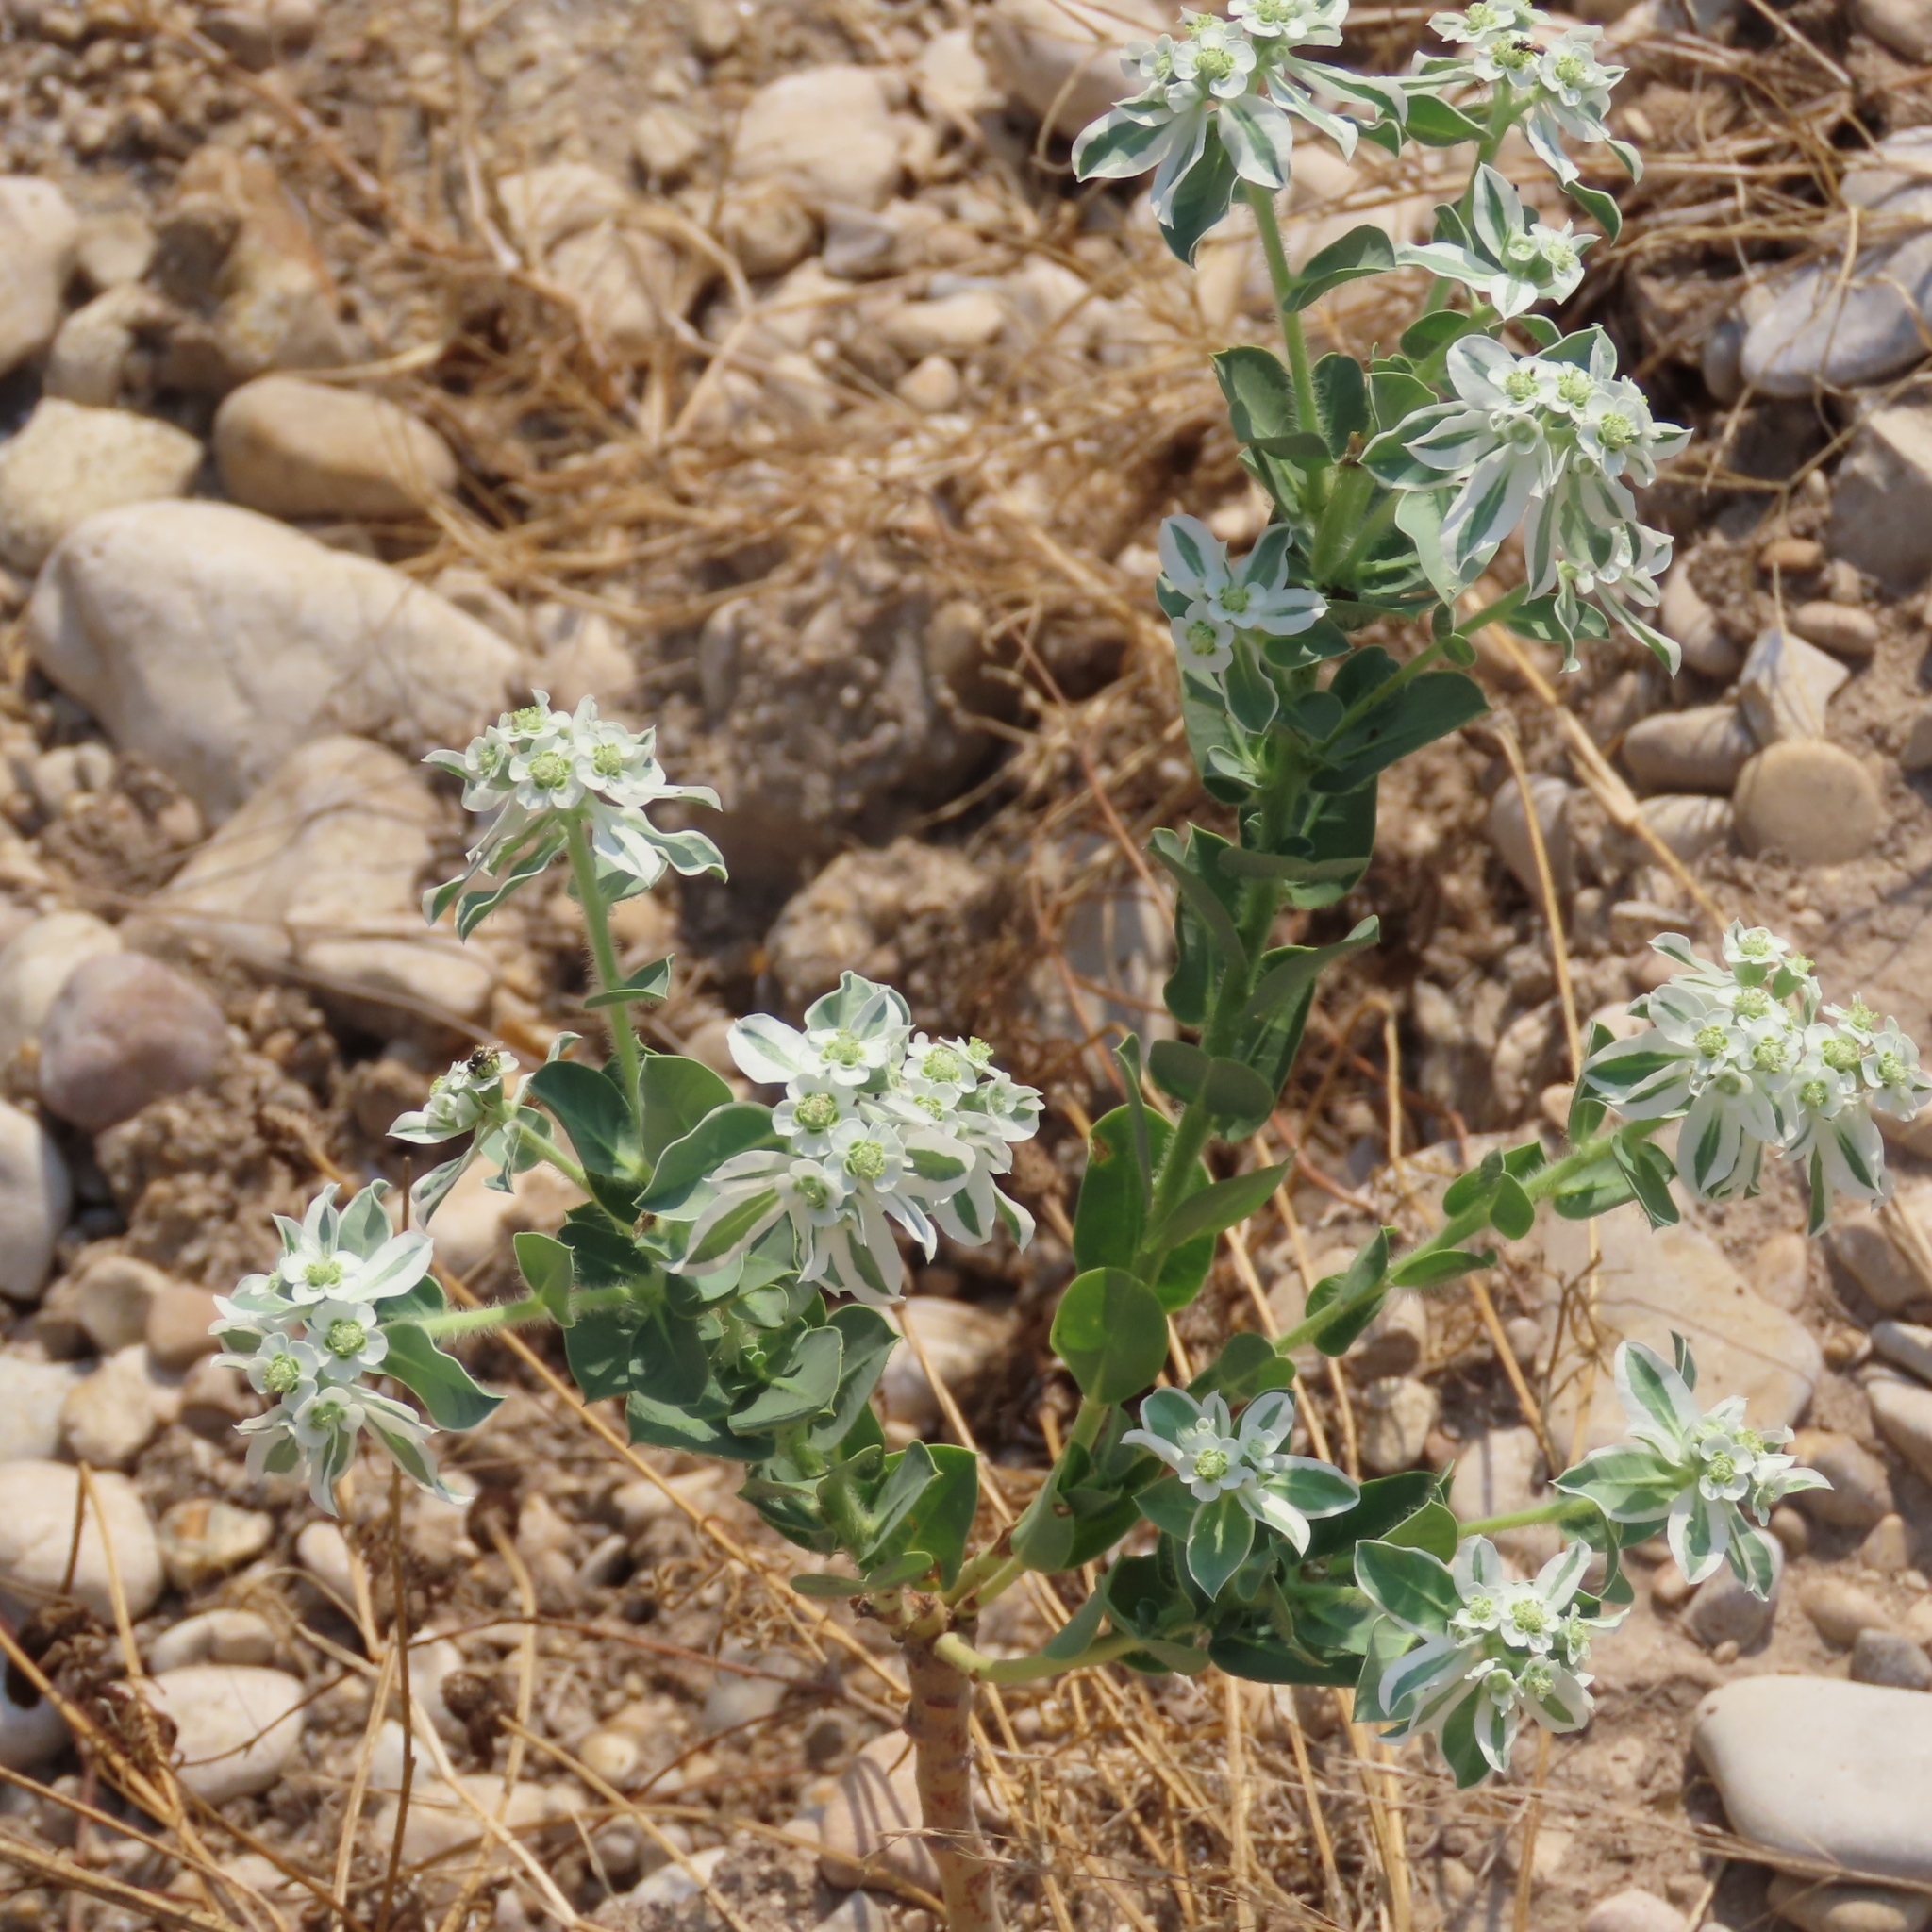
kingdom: Plantae
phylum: Tracheophyta
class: Magnoliopsida
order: Malpighiales
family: Euphorbiaceae
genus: Euphorbia
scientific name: Euphorbia marginata
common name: Ghostweed
